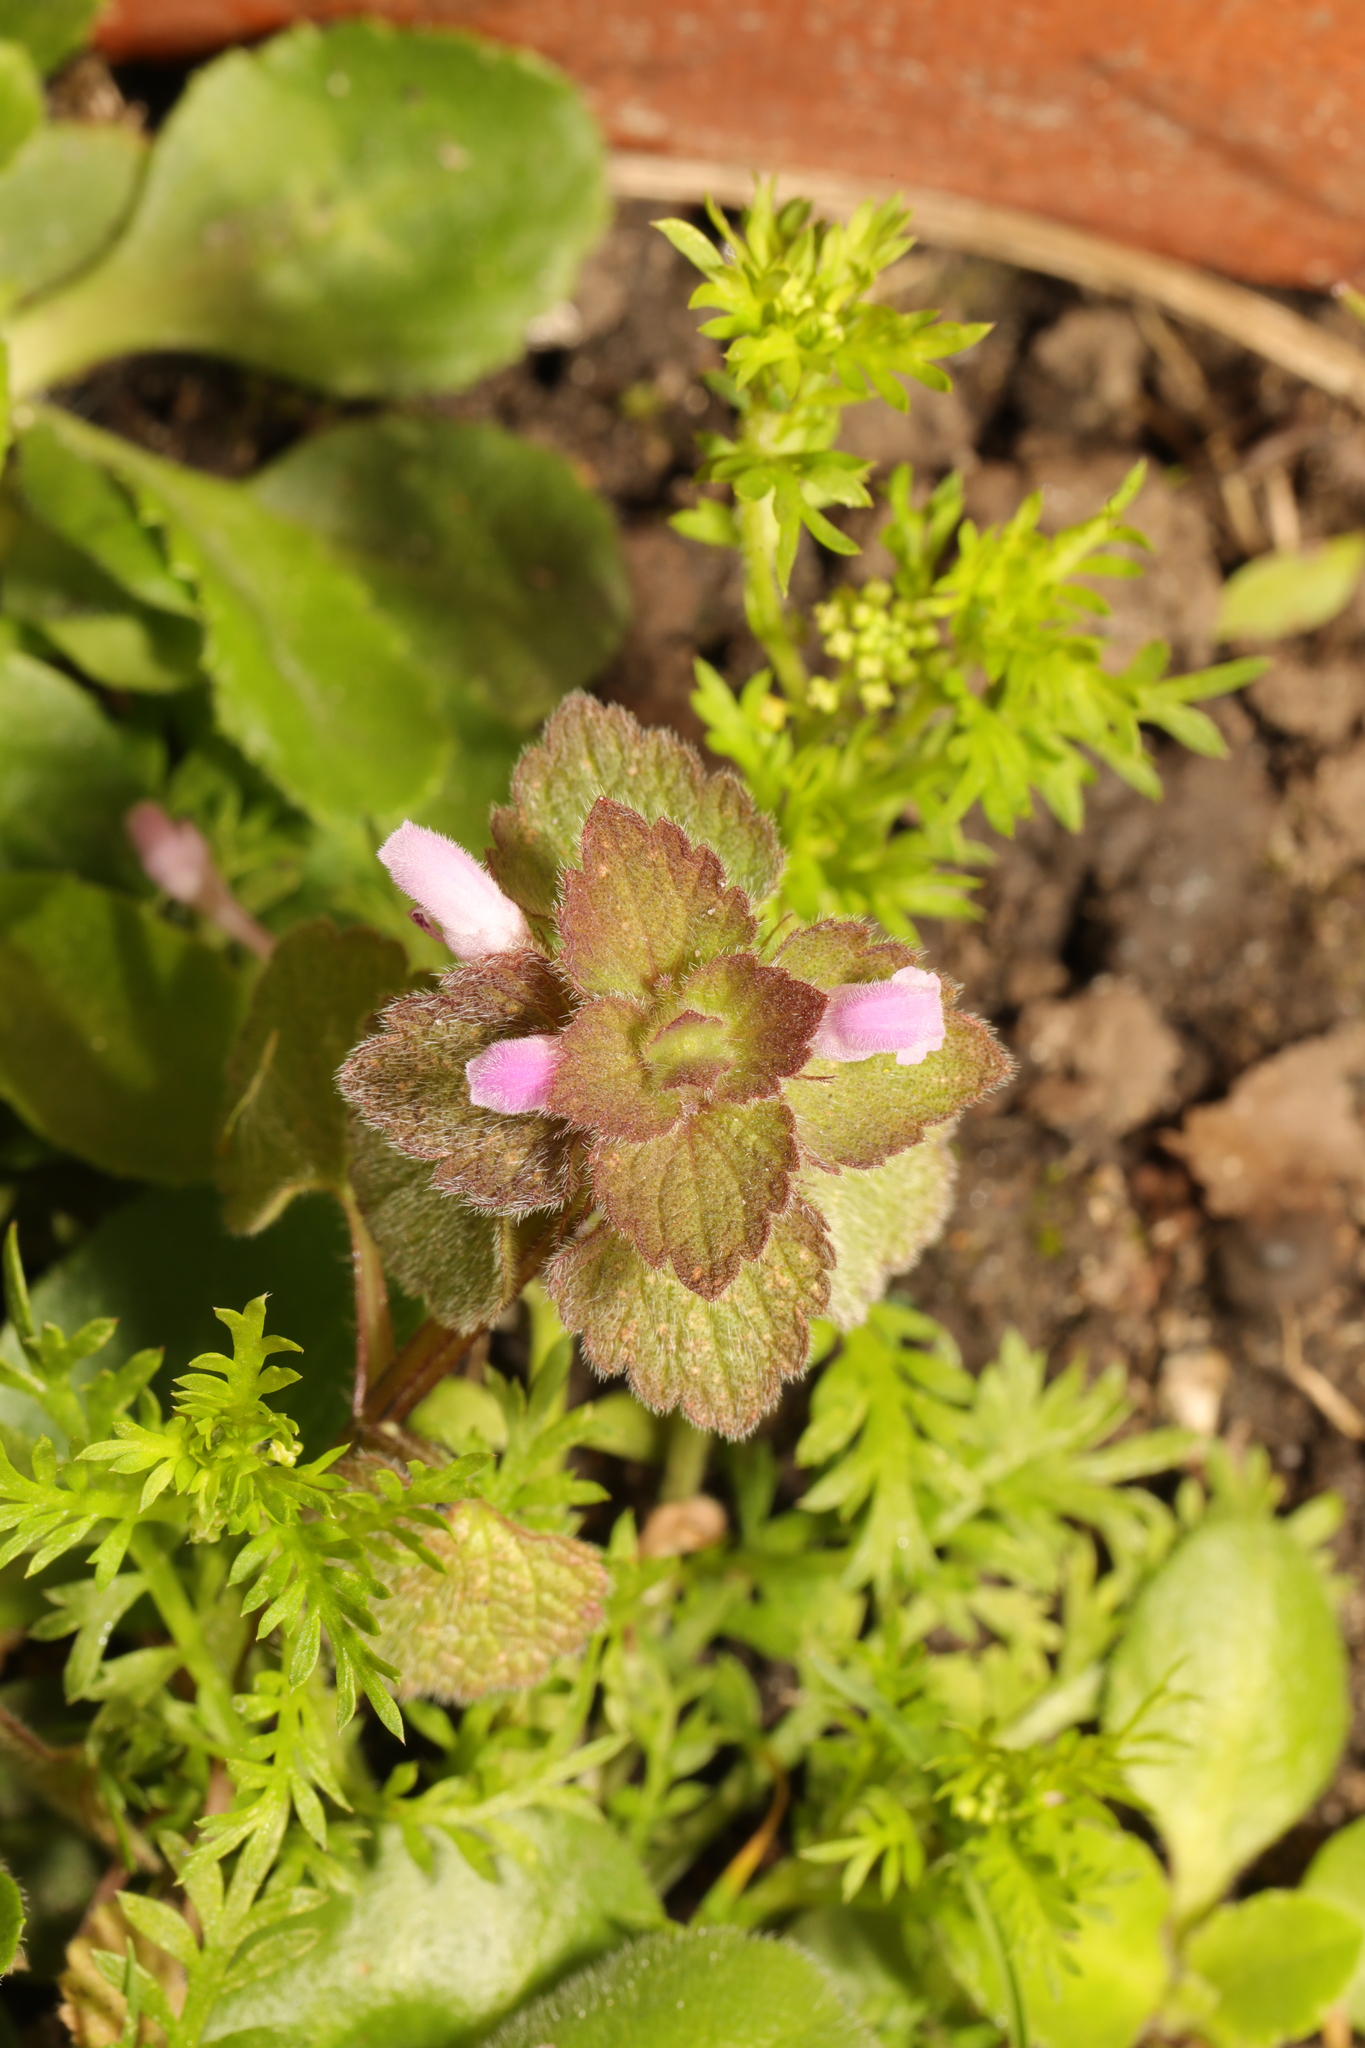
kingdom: Plantae
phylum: Tracheophyta
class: Magnoliopsida
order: Lamiales
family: Lamiaceae
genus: Lamium
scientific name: Lamium purpureum
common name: Red dead-nettle
